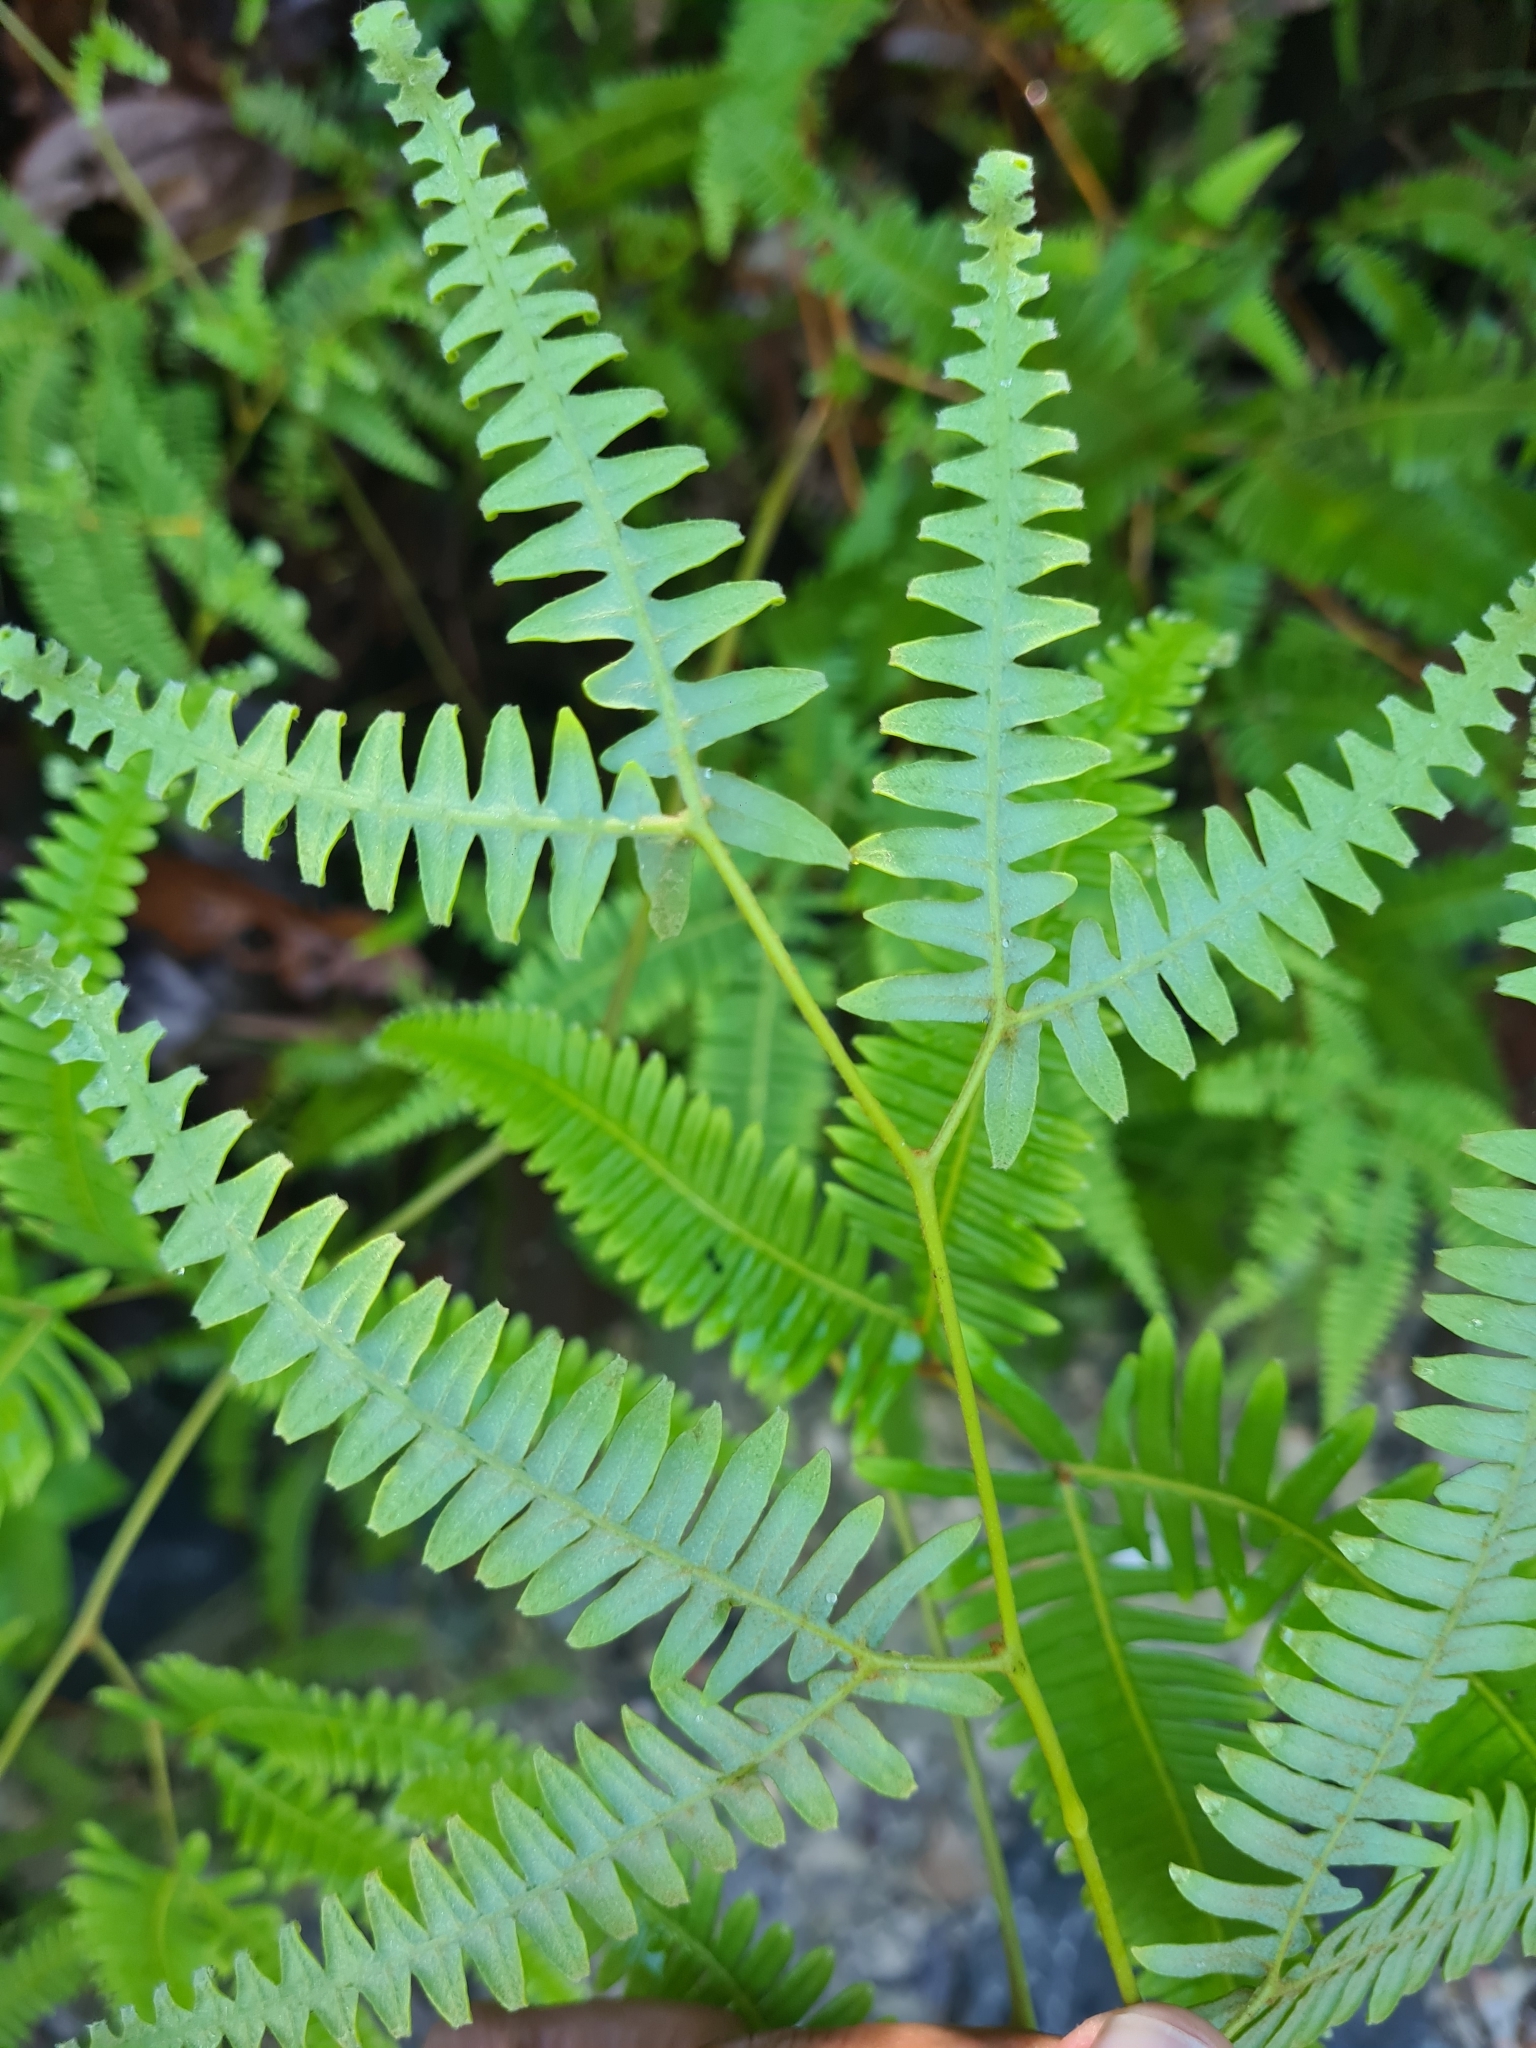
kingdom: Plantae
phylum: Tracheophyta
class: Polypodiopsida
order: Gleicheniales
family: Gleicheniaceae
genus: Gleichenella
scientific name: Gleichenella pectinata
